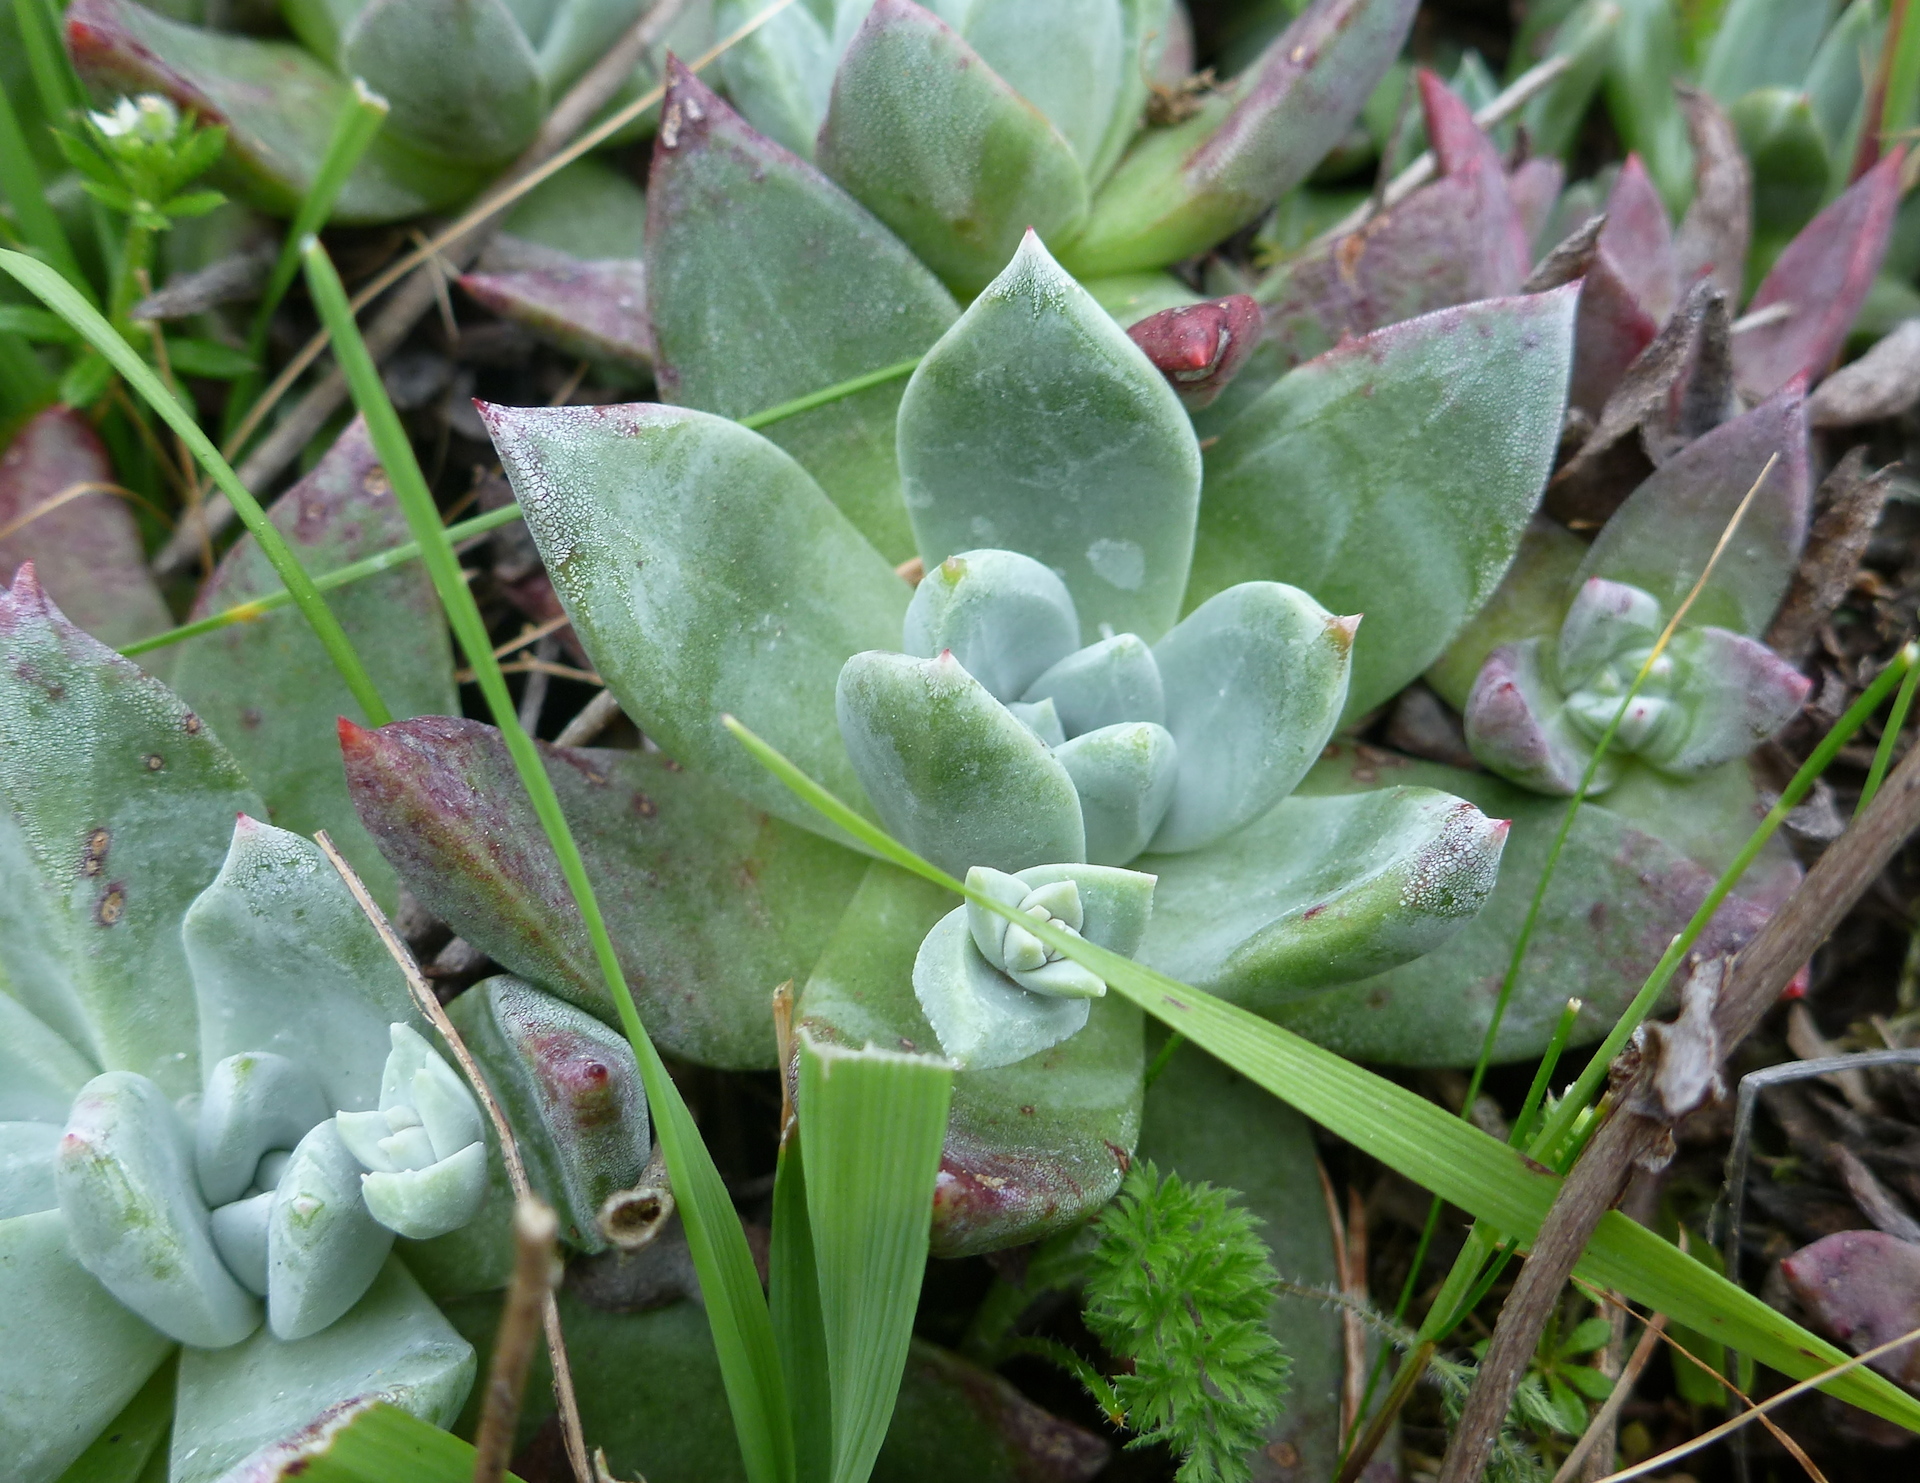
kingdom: Plantae
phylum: Tracheophyta
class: Magnoliopsida
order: Saxifragales
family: Crassulaceae
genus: Dudleya
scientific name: Dudleya farinosa
